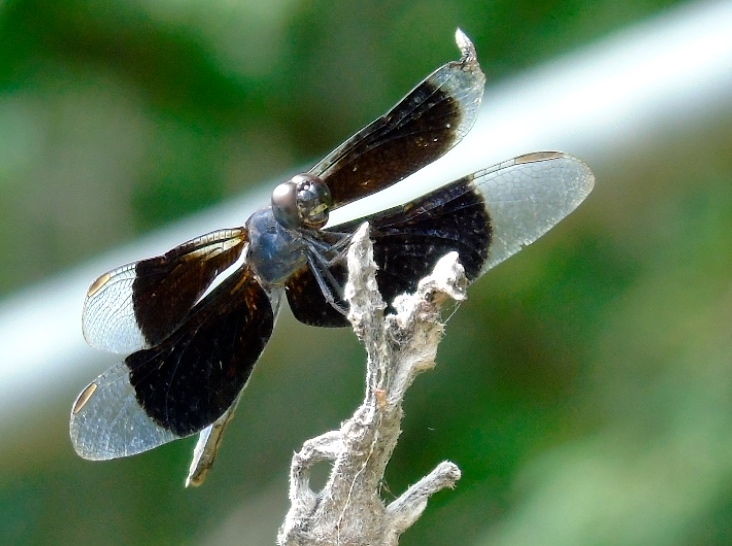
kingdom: Animalia
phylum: Arthropoda
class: Insecta
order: Odonata
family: Libellulidae
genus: Erythrodiplax
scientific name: Erythrodiplax funerea
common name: Black-winged dragonlet
